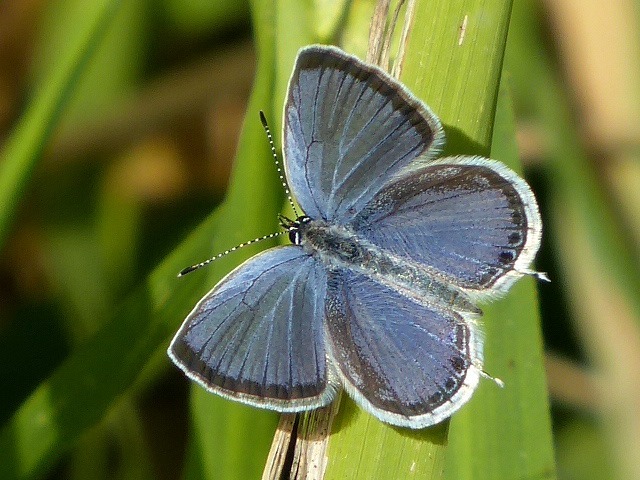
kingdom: Animalia
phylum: Arthropoda
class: Insecta
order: Lepidoptera
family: Lycaenidae
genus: Elkalyce
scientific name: Elkalyce comyntas
